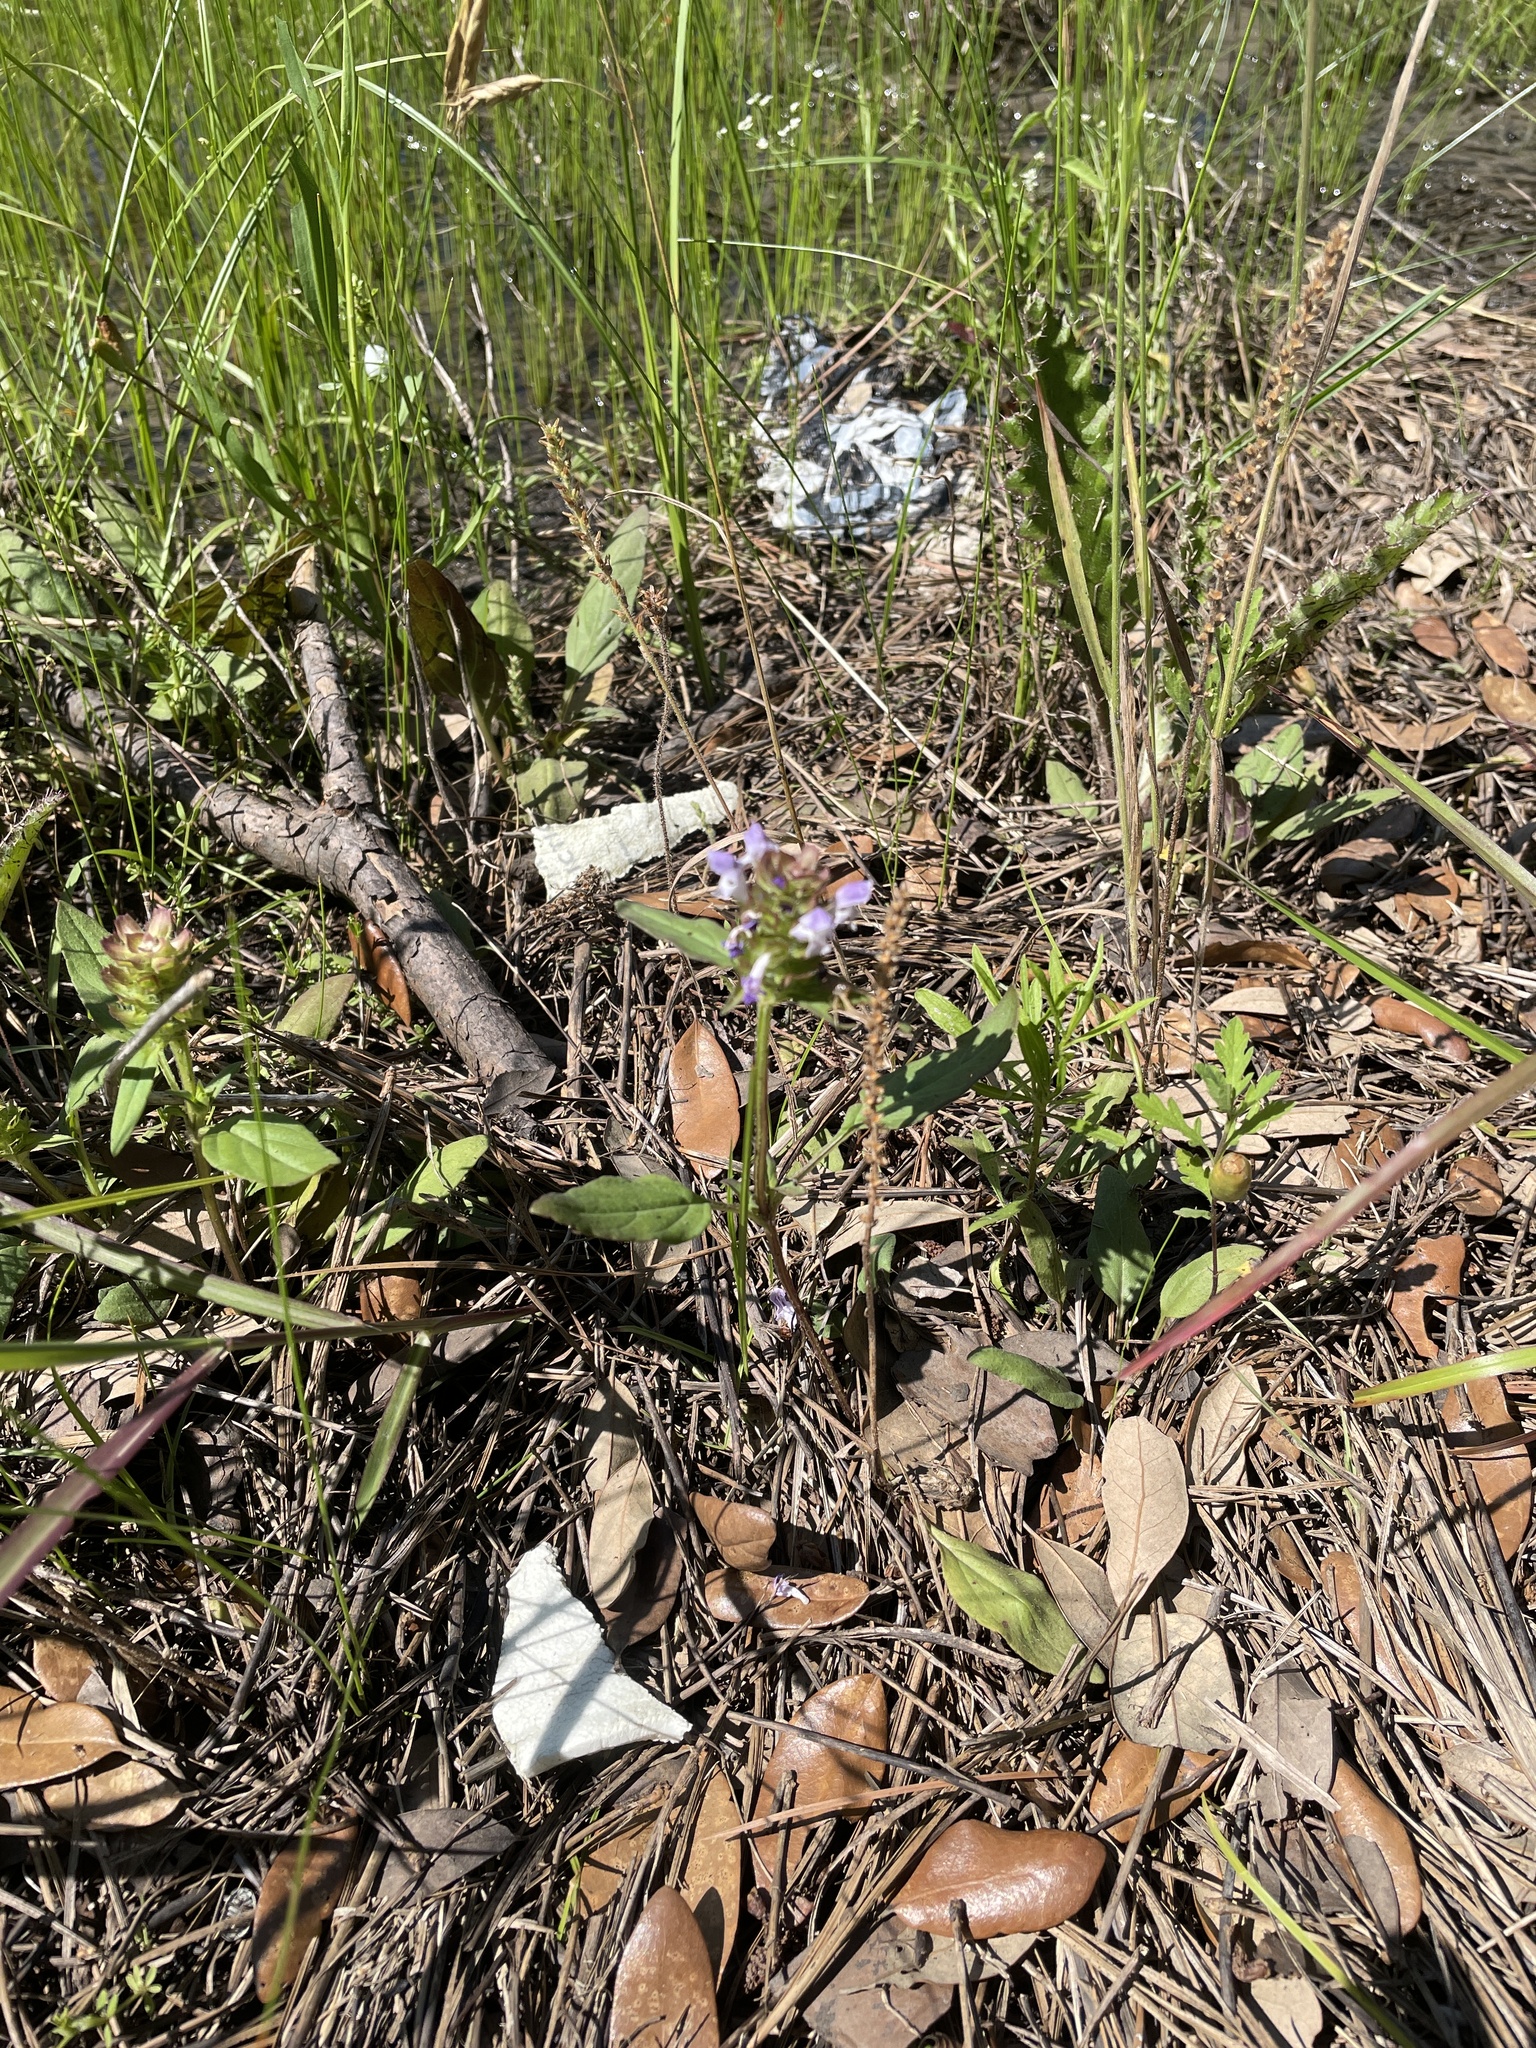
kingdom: Plantae
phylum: Tracheophyta
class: Magnoliopsida
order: Lamiales
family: Lamiaceae
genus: Prunella
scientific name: Prunella vulgaris
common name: Heal-all
